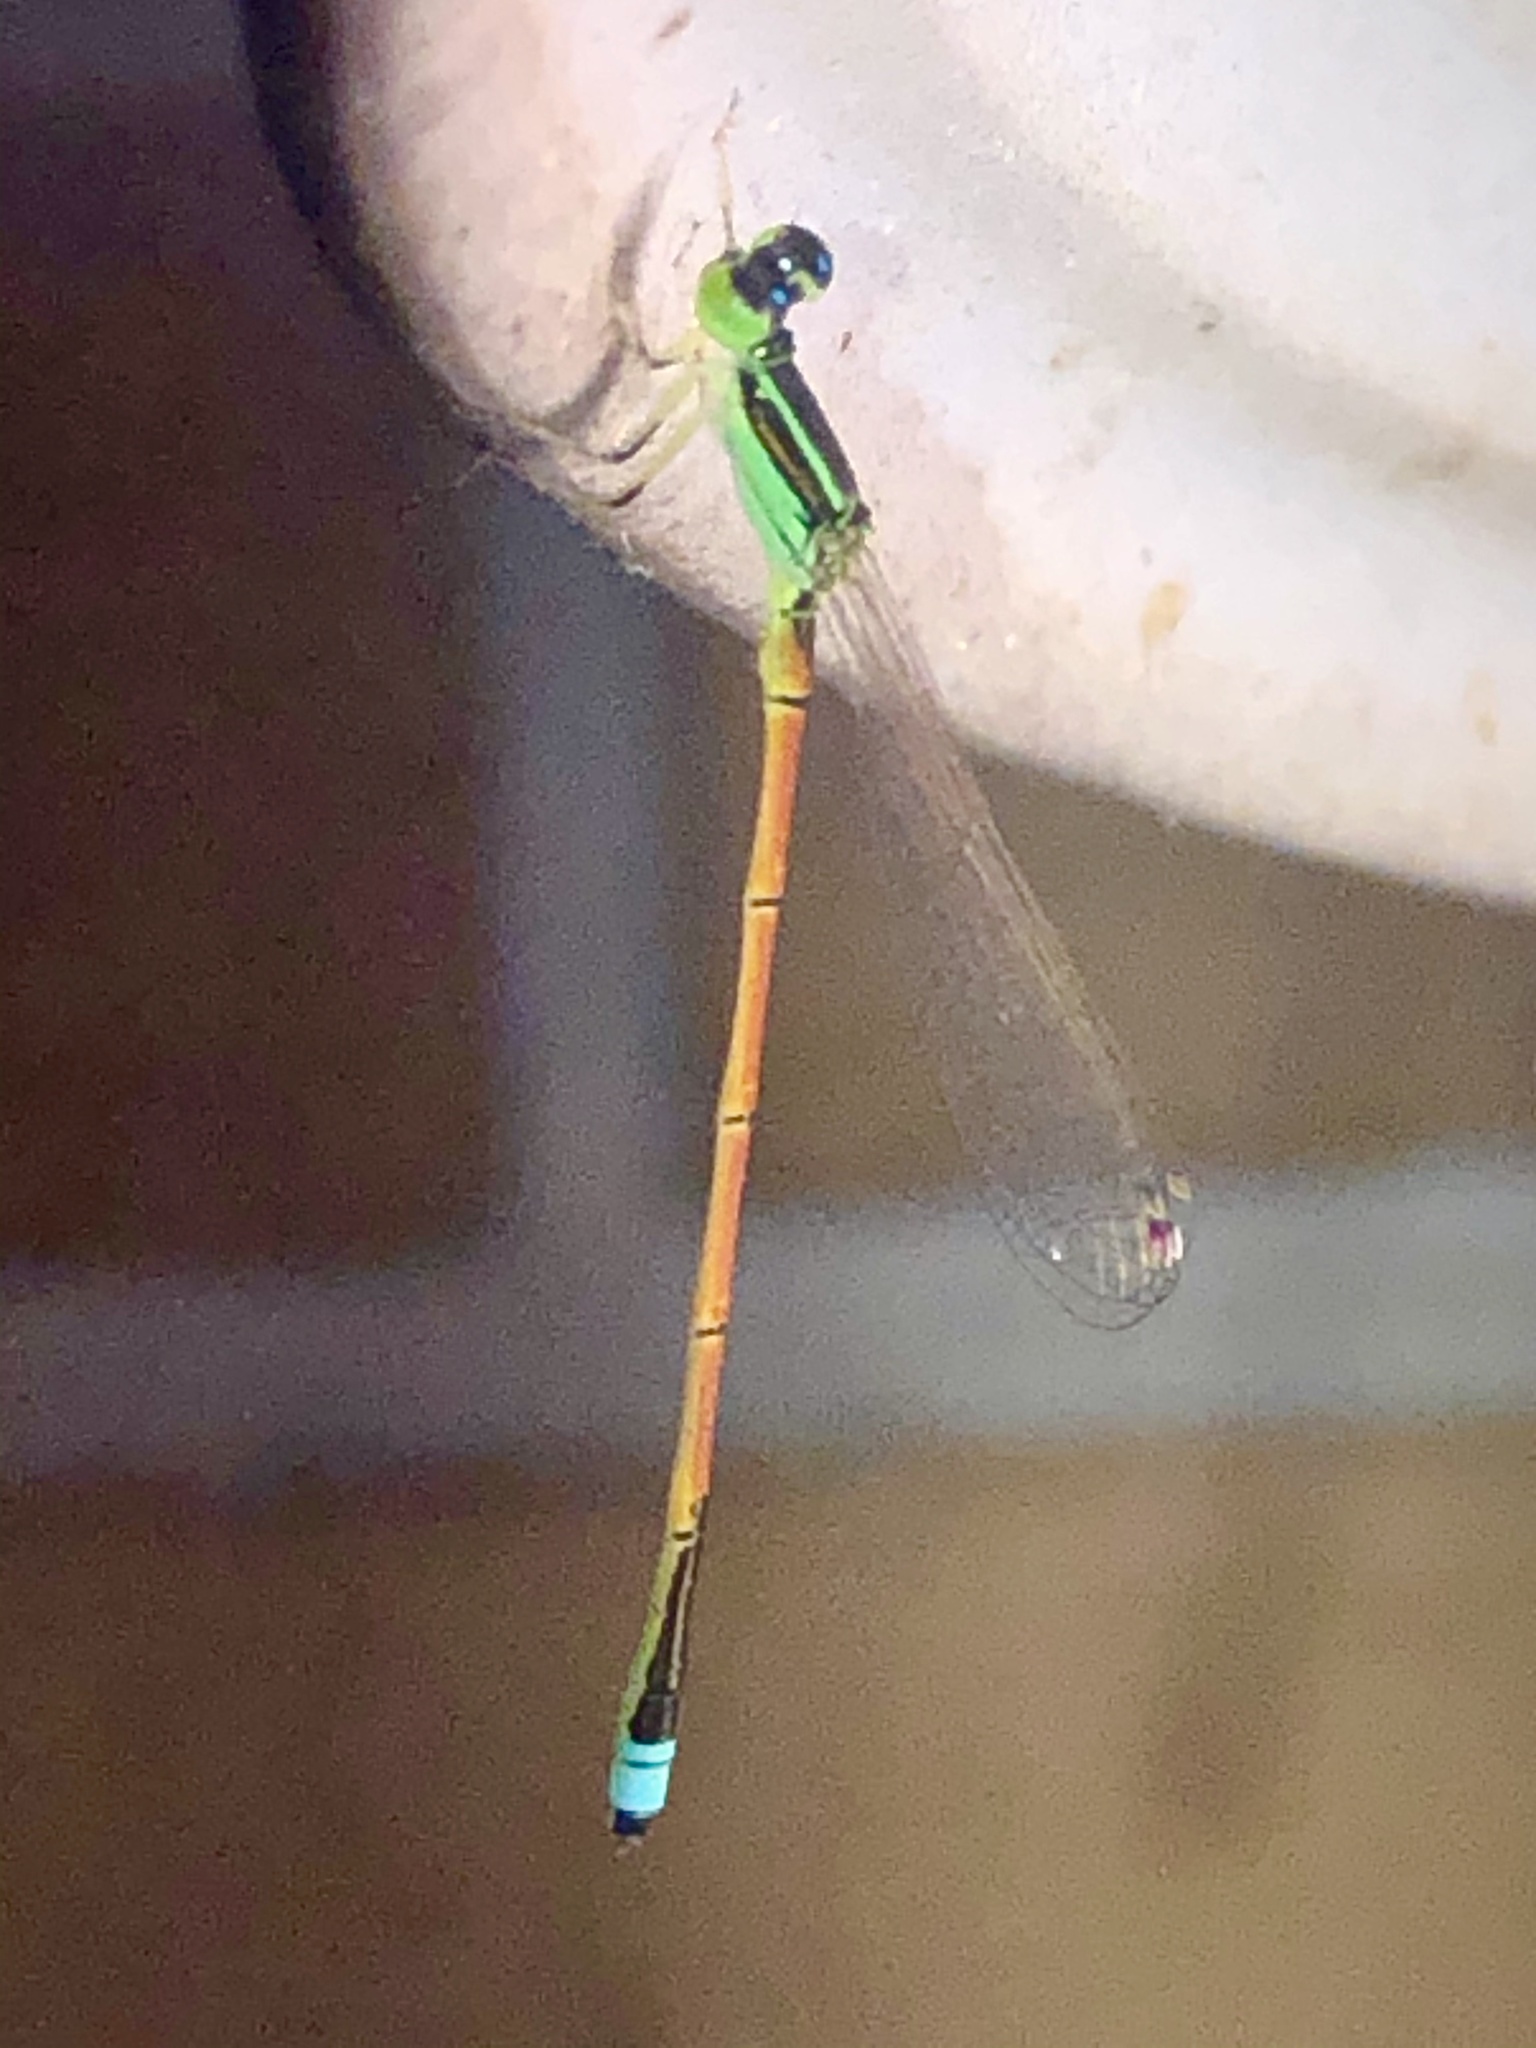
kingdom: Animalia
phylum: Arthropoda
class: Insecta
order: Odonata
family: Coenagrionidae
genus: Ischnura
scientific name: Ischnura aurora
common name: Gossamer damselfly
